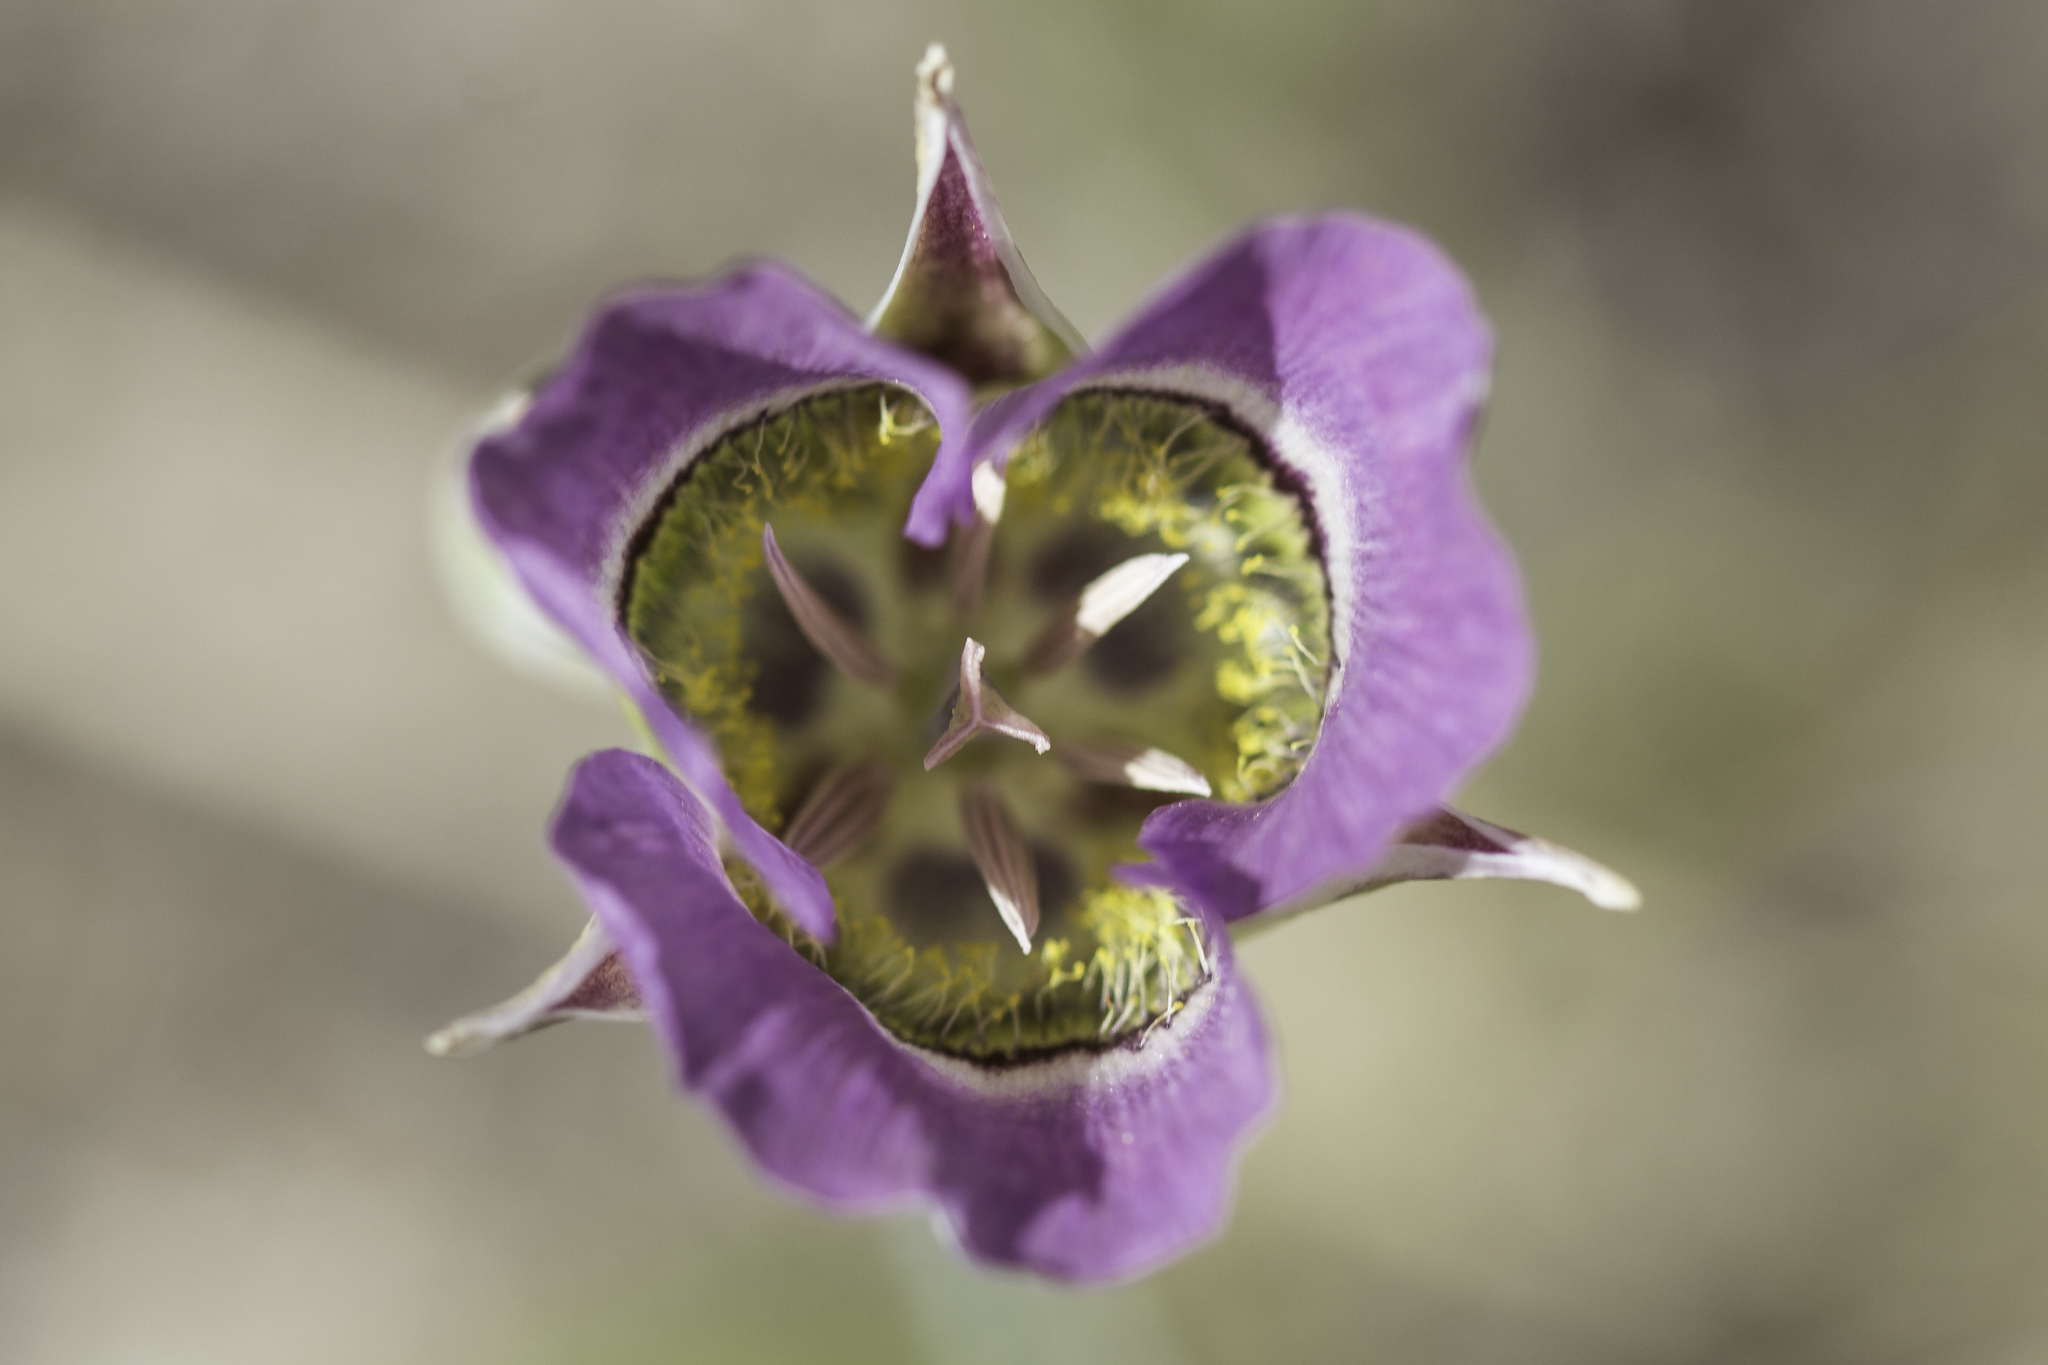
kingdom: Plantae
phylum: Tracheophyta
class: Liliopsida
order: Liliales
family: Liliaceae
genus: Calochortus
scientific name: Calochortus gunnisonii
